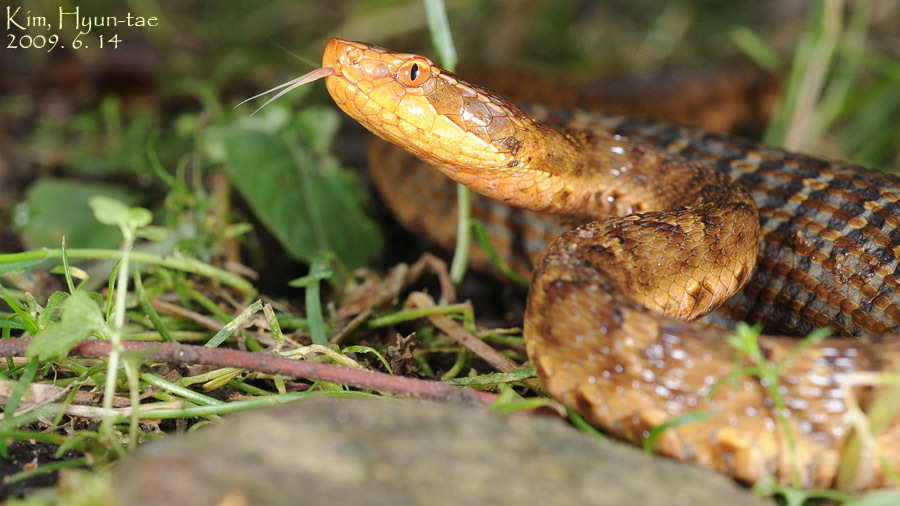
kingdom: Animalia
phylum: Chordata
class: Squamata
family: Viperidae
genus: Gloydius
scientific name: Gloydius ussuriensis
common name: Ussuri mamushi
